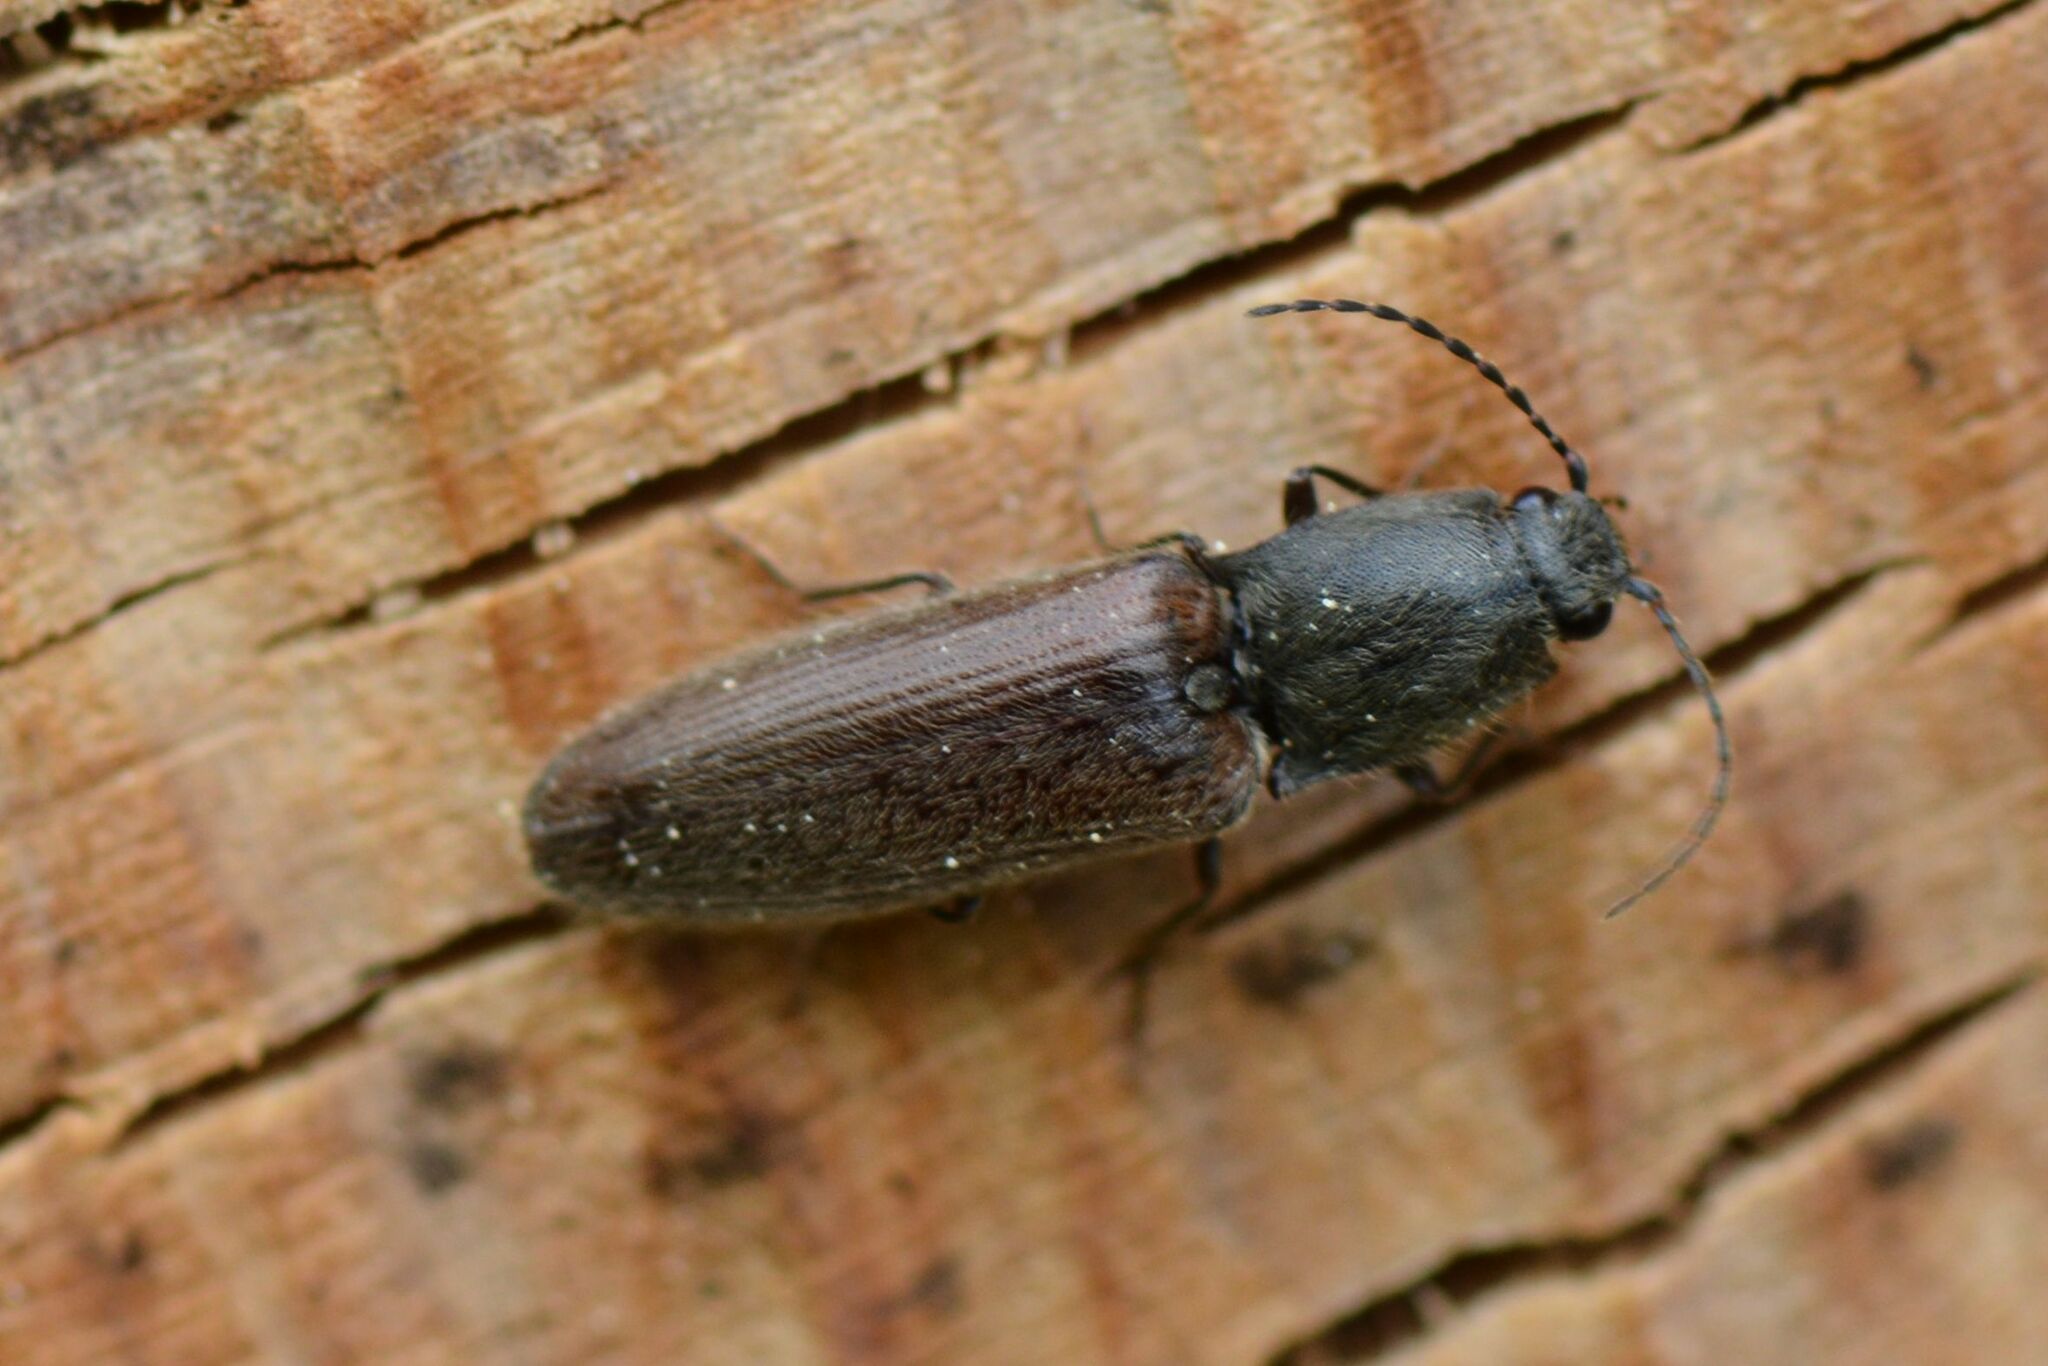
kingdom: Animalia
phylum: Arthropoda
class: Insecta
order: Coleoptera
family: Elateridae
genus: Athous
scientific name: Athous haemorrhoidalis
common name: Red-brown click beetle
